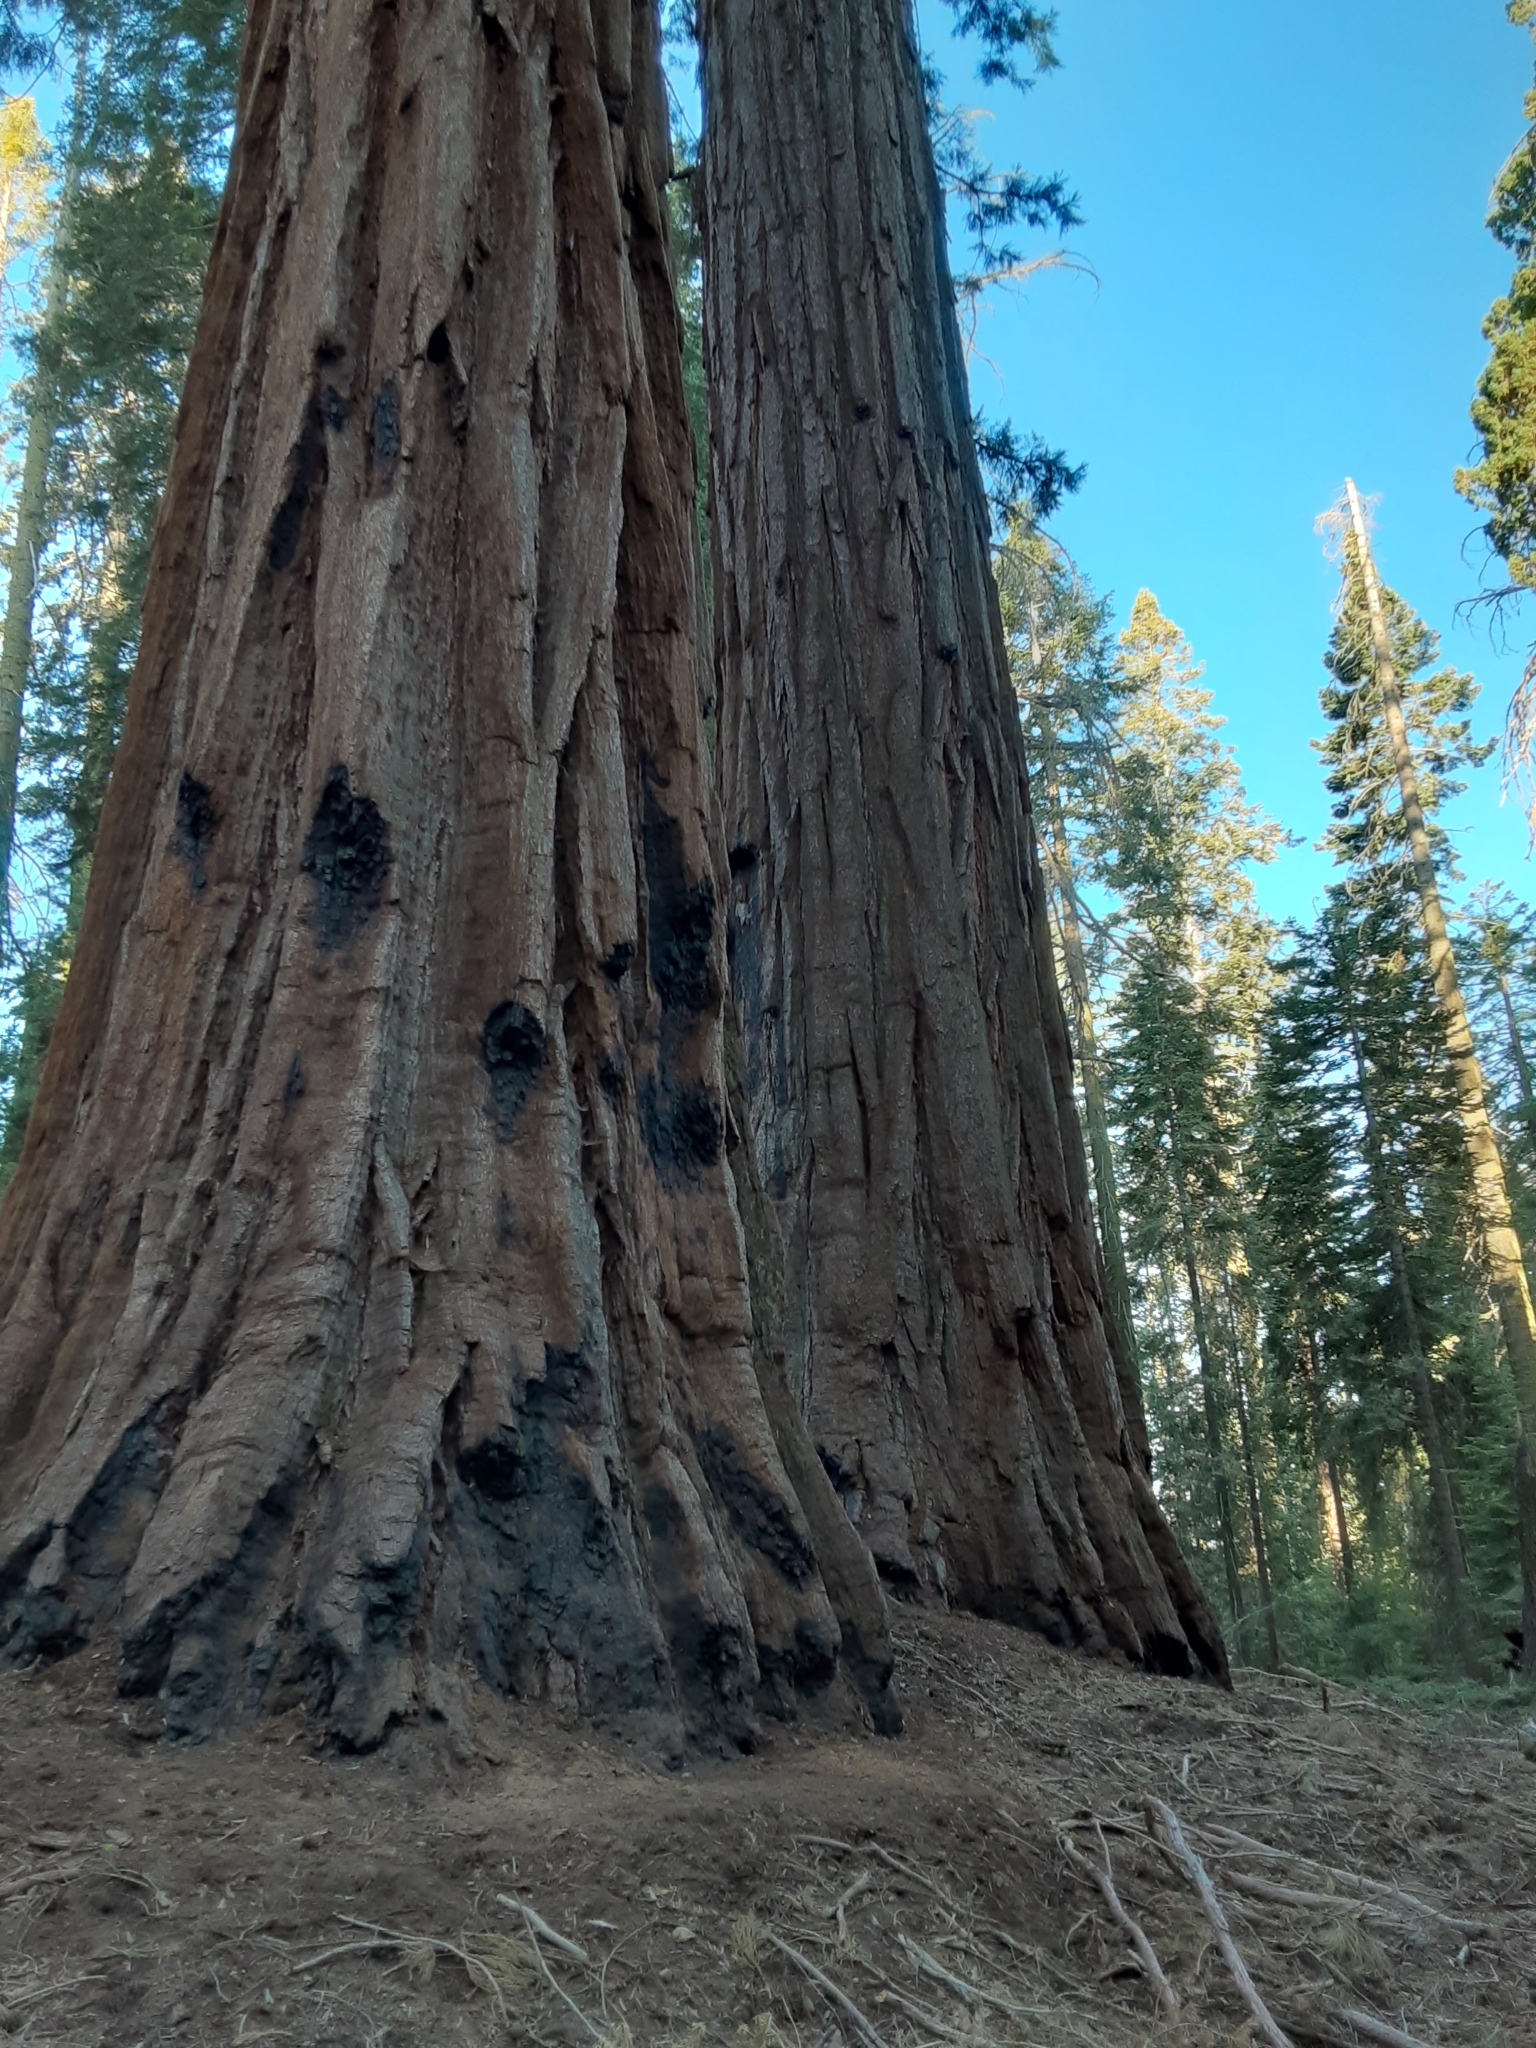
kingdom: Plantae
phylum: Tracheophyta
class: Pinopsida
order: Pinales
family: Cupressaceae
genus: Sequoiadendron
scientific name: Sequoiadendron giganteum
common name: Wellingtonia
